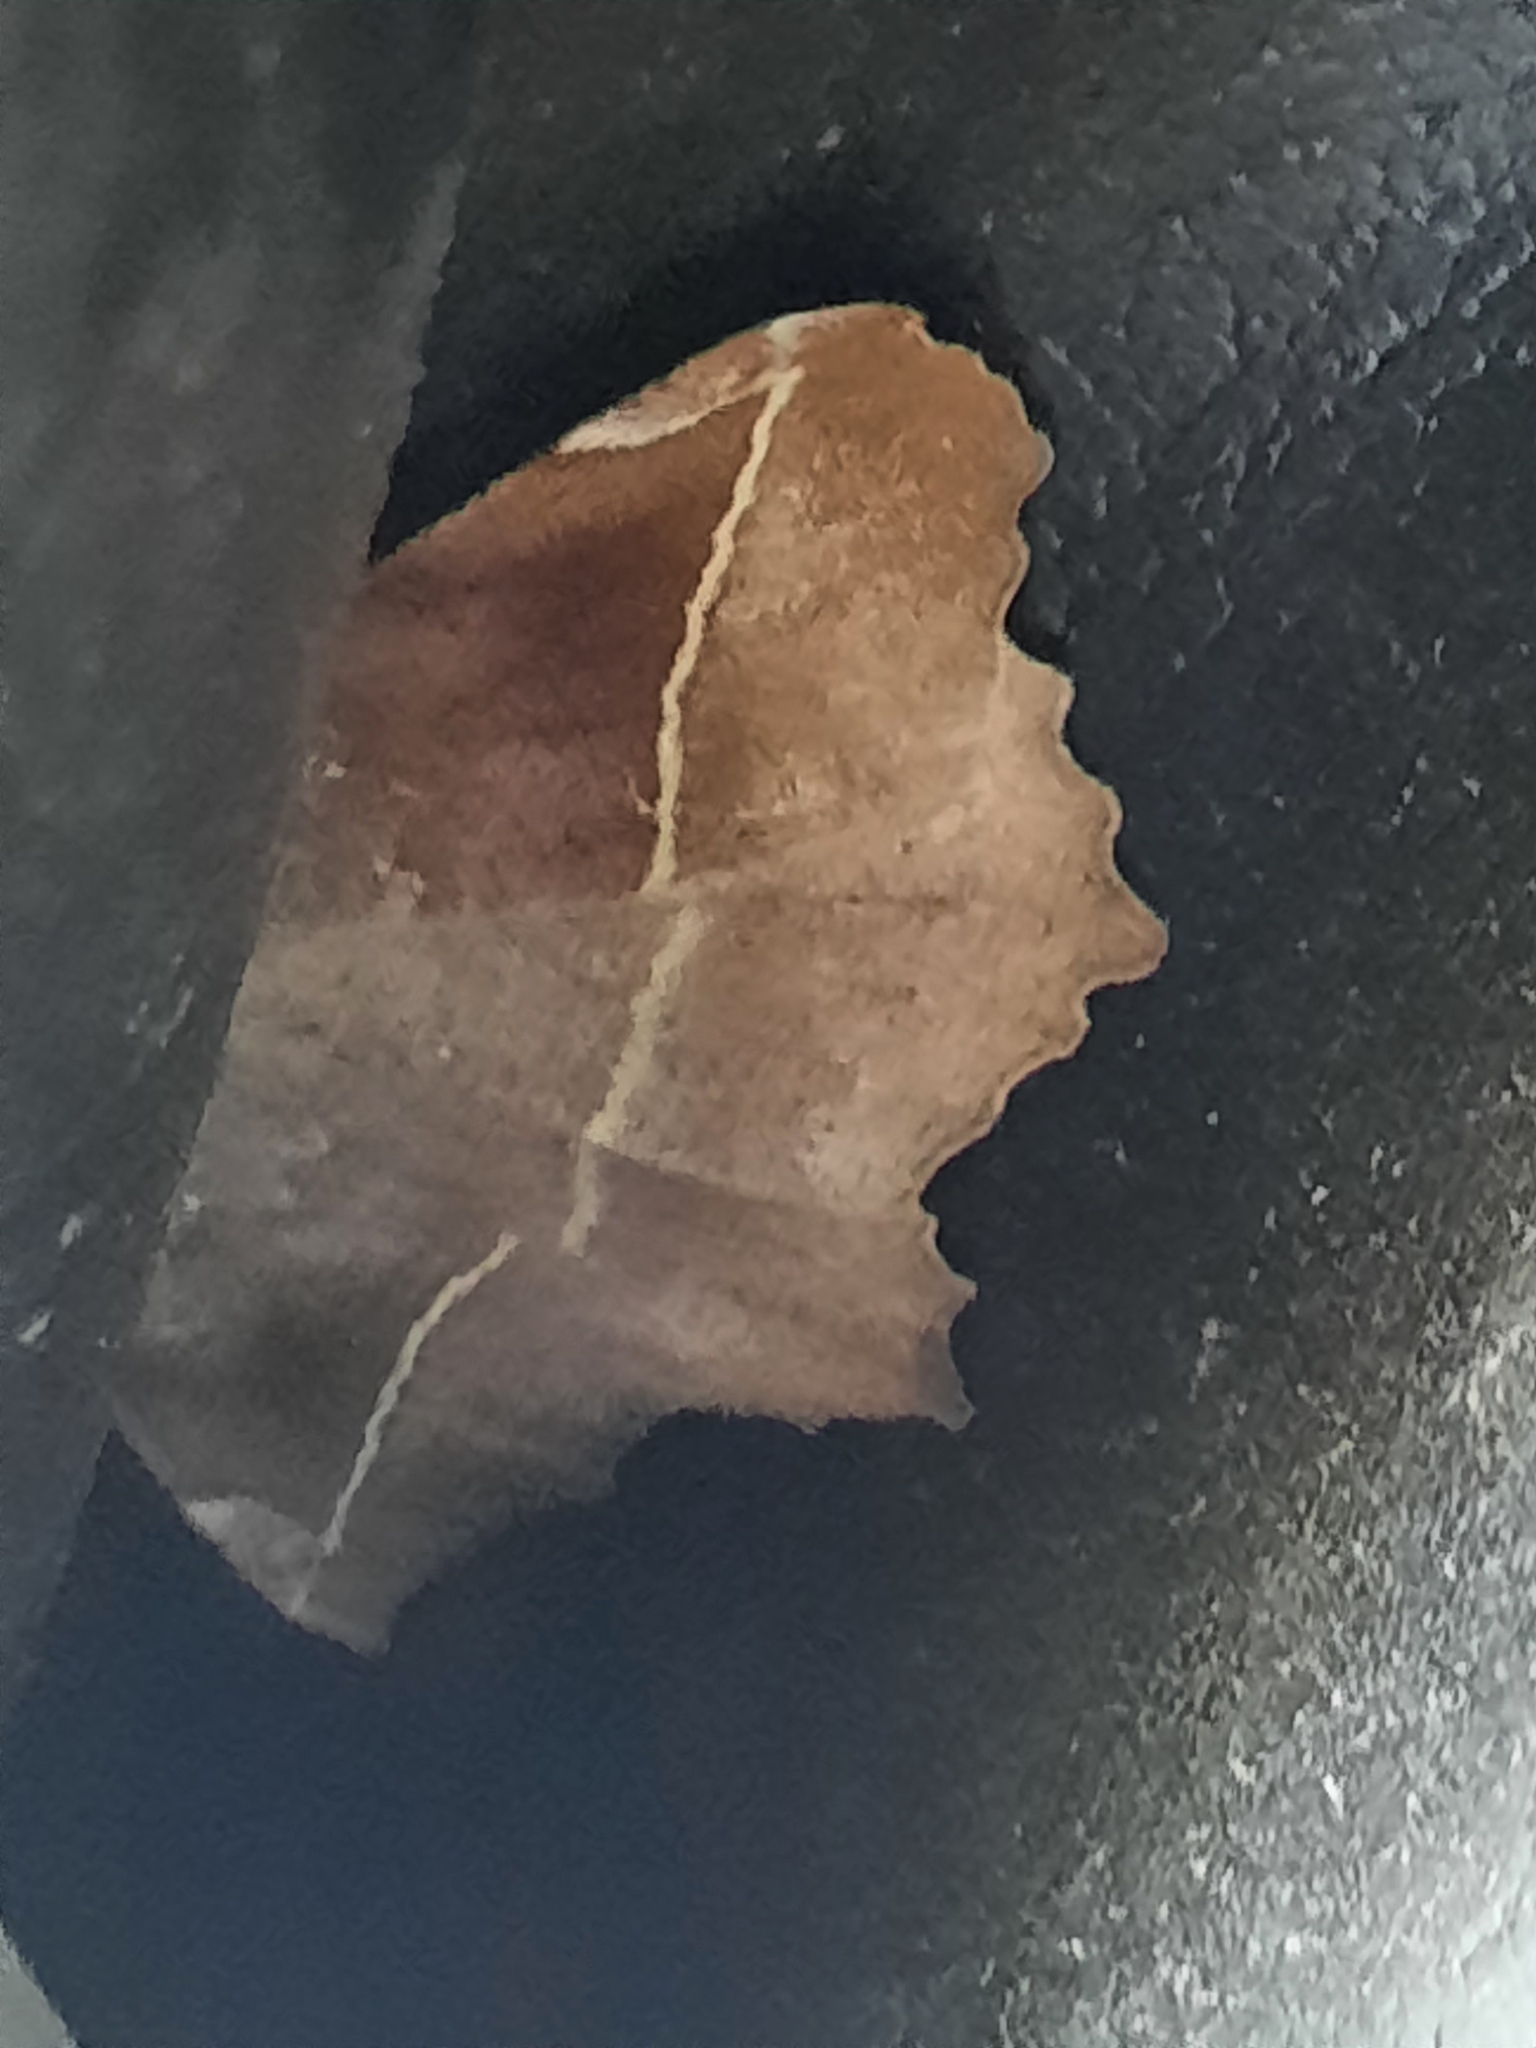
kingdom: Animalia
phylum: Arthropoda
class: Insecta
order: Lepidoptera
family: Geometridae
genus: Eutrapela
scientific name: Eutrapela clemataria
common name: Curved-toothed geometer
